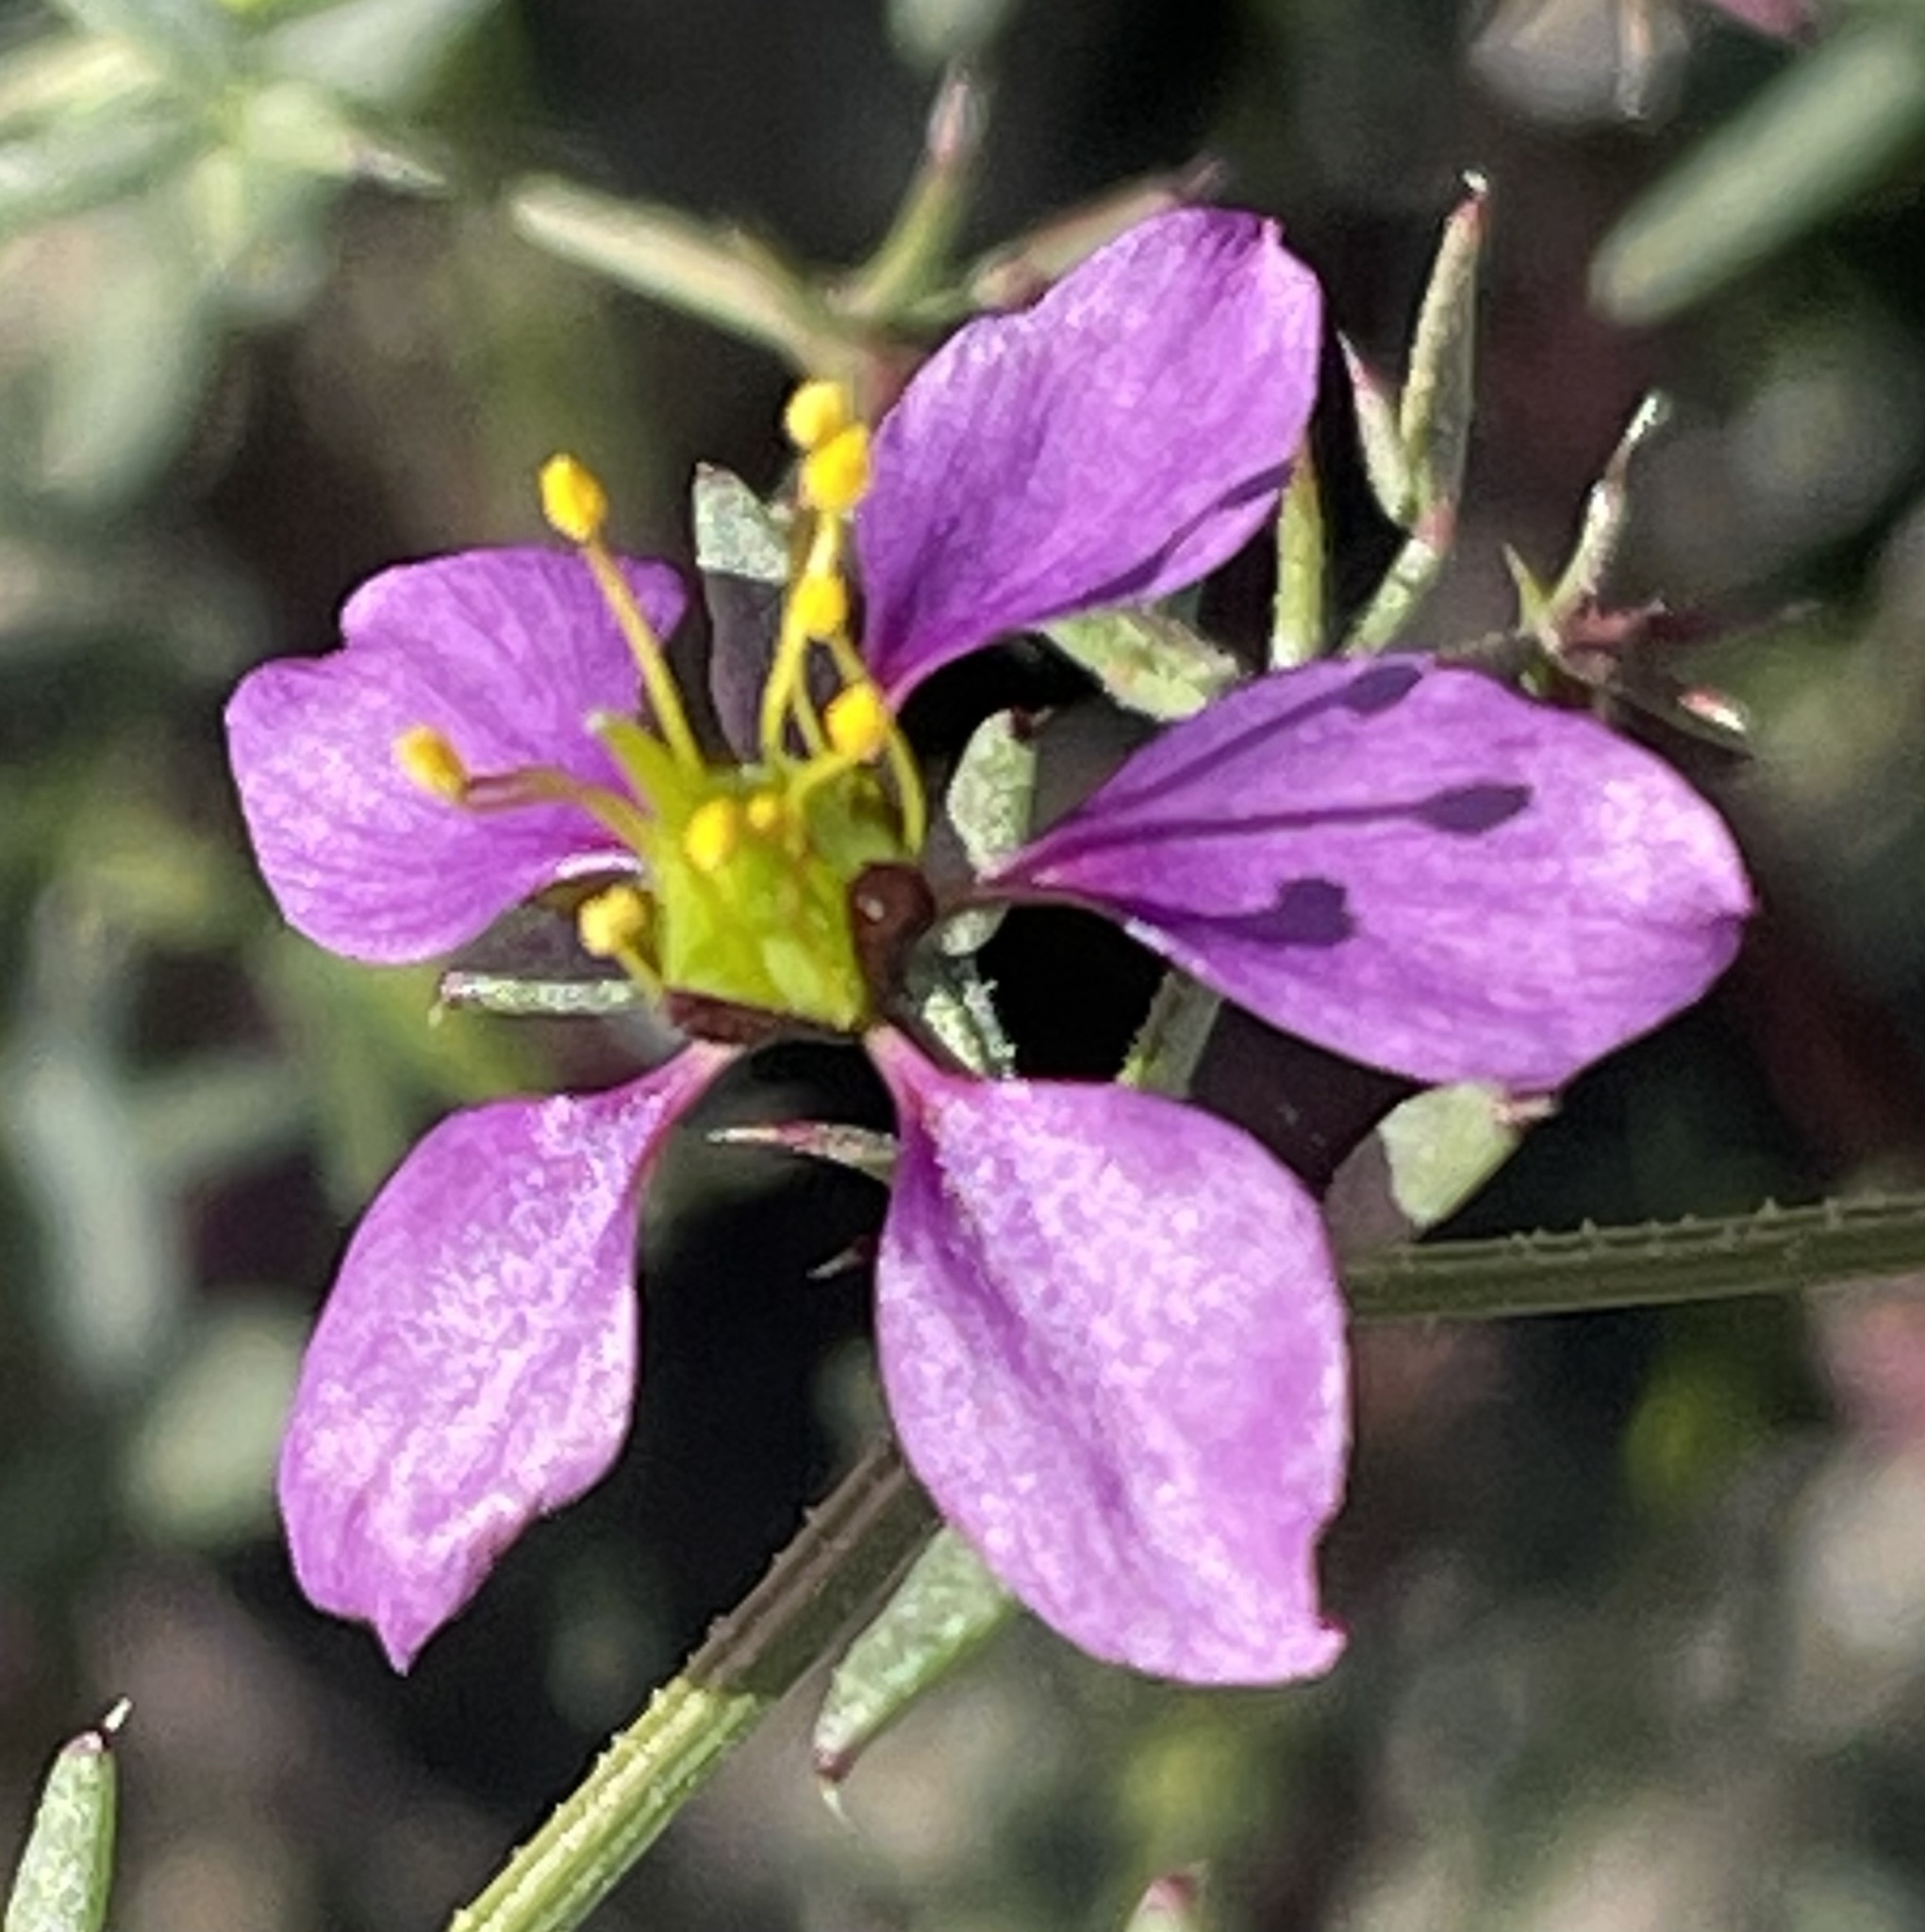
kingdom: Plantae
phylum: Tracheophyta
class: Magnoliopsida
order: Zygophyllales
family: Zygophyllaceae
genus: Fagonia
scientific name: Fagonia laevis
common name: California fagonbush
